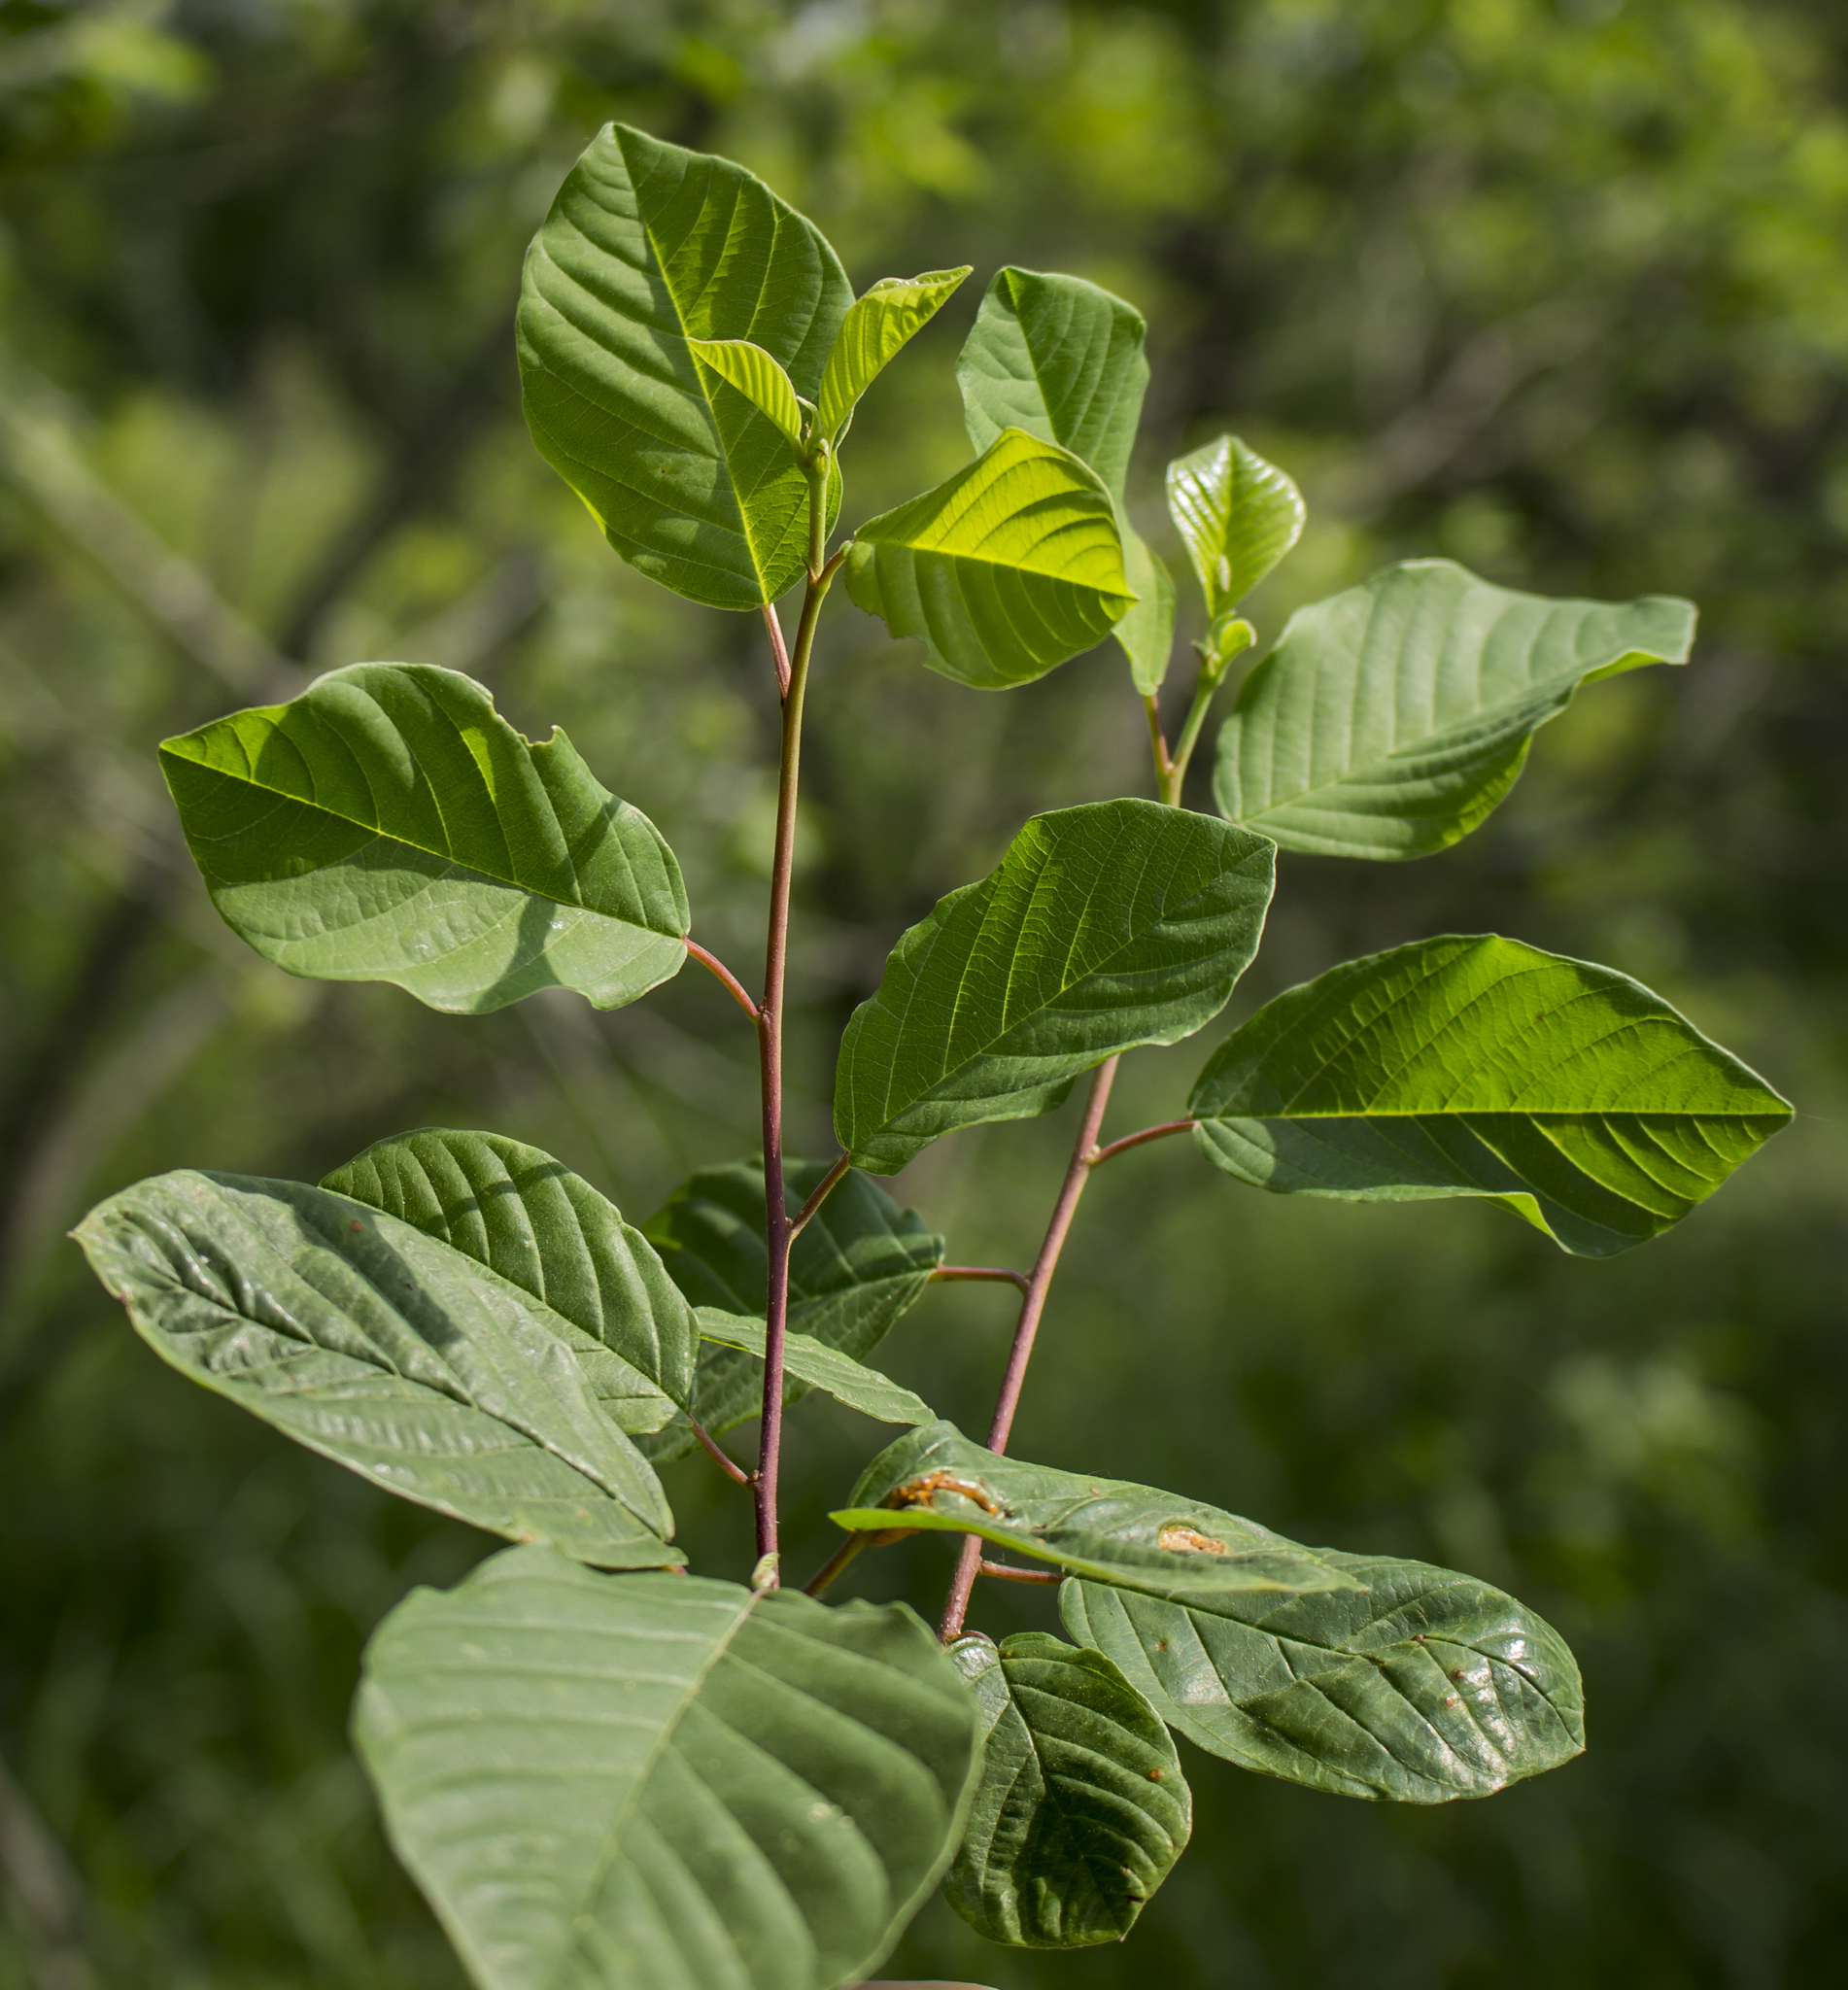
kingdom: Plantae
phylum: Tracheophyta
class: Magnoliopsida
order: Rosales
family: Rhamnaceae
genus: Frangula
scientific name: Frangula alnus
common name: Alder buckthorn
